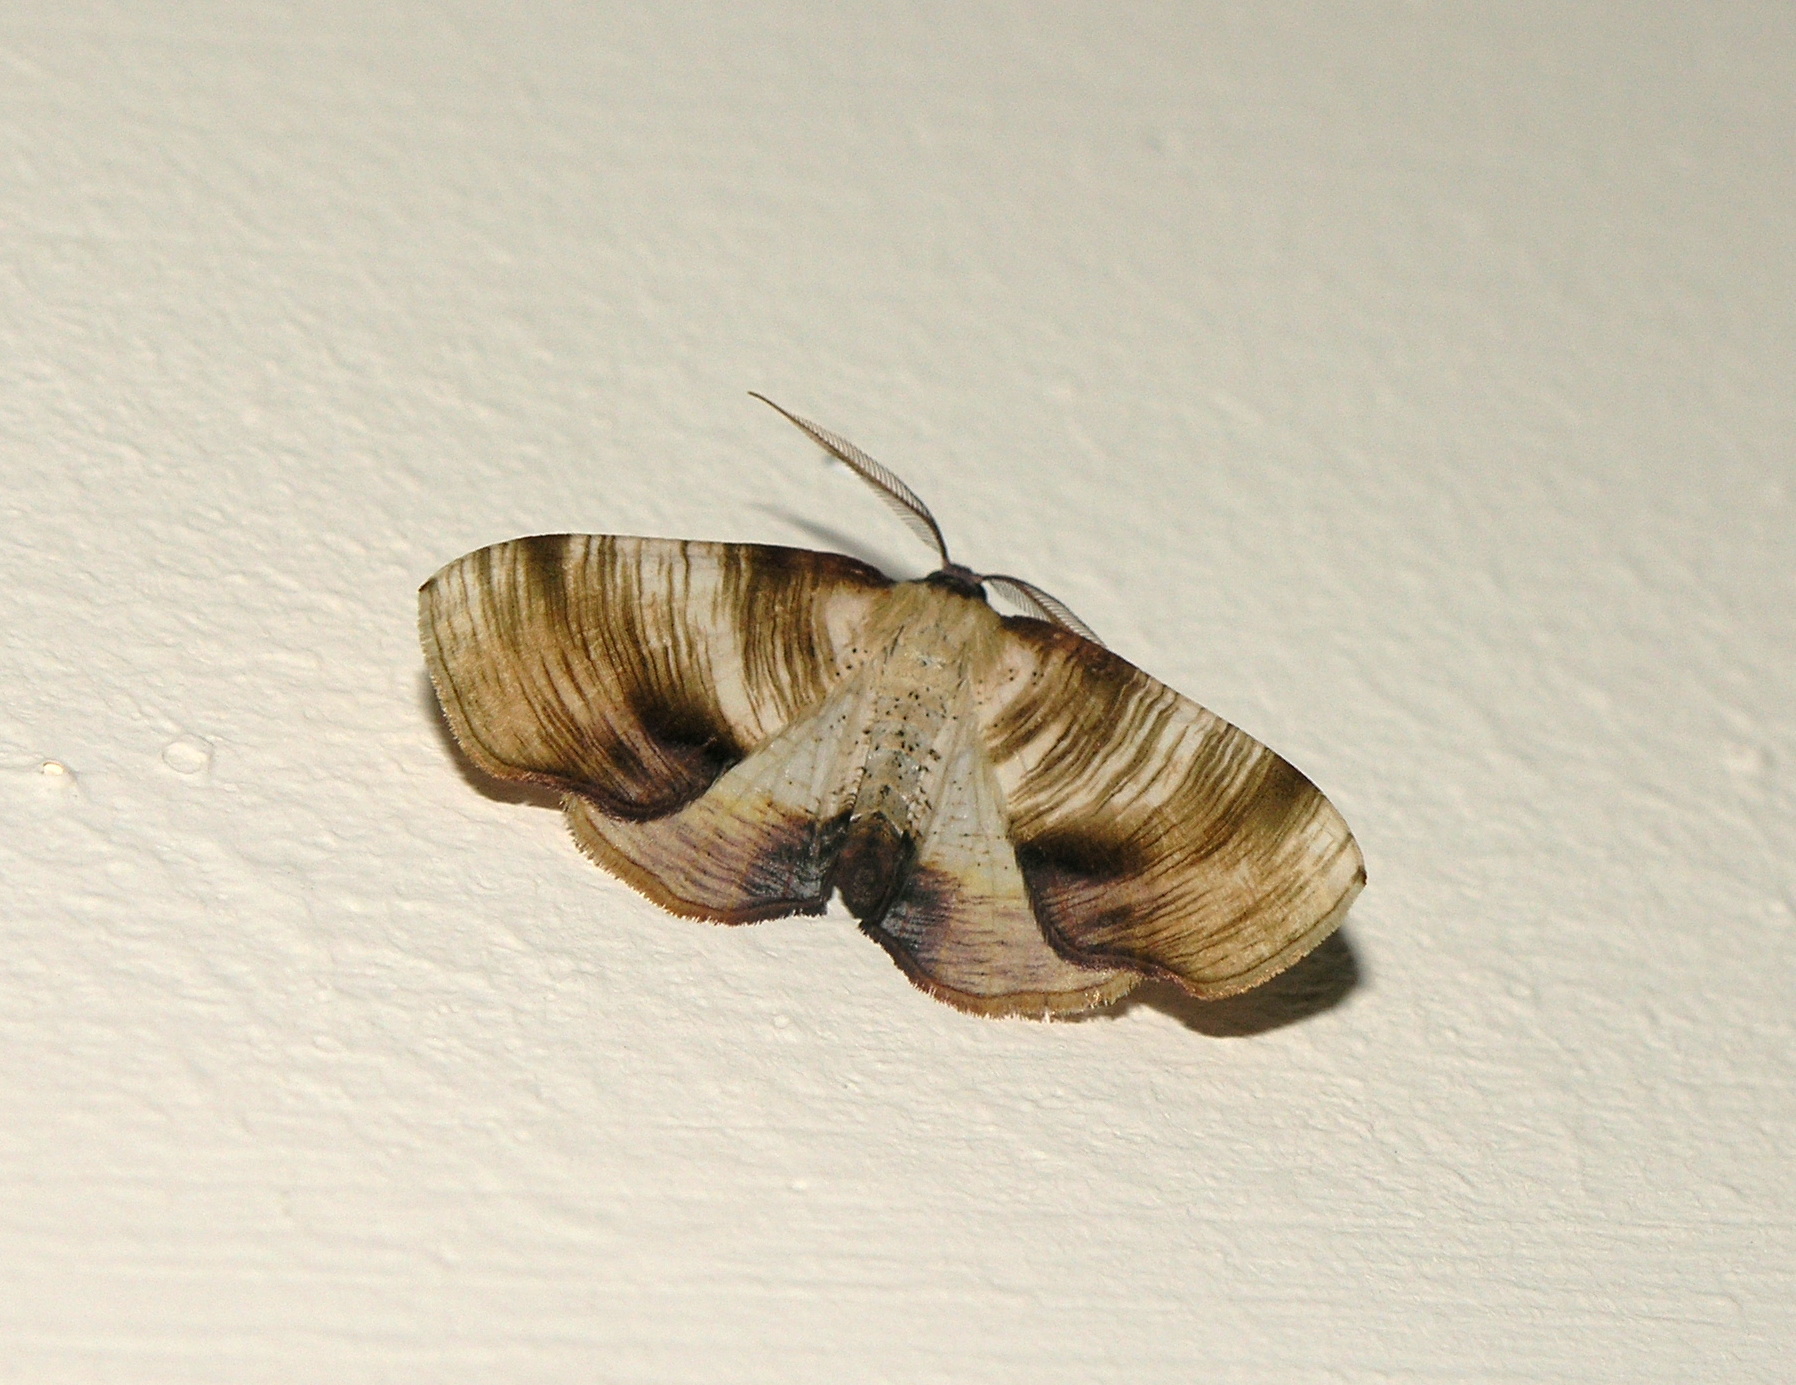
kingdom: Animalia
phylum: Arthropoda
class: Insecta
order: Lepidoptera
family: Geometridae
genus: Plagodis
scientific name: Plagodis dolabraria
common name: Scorched wing
